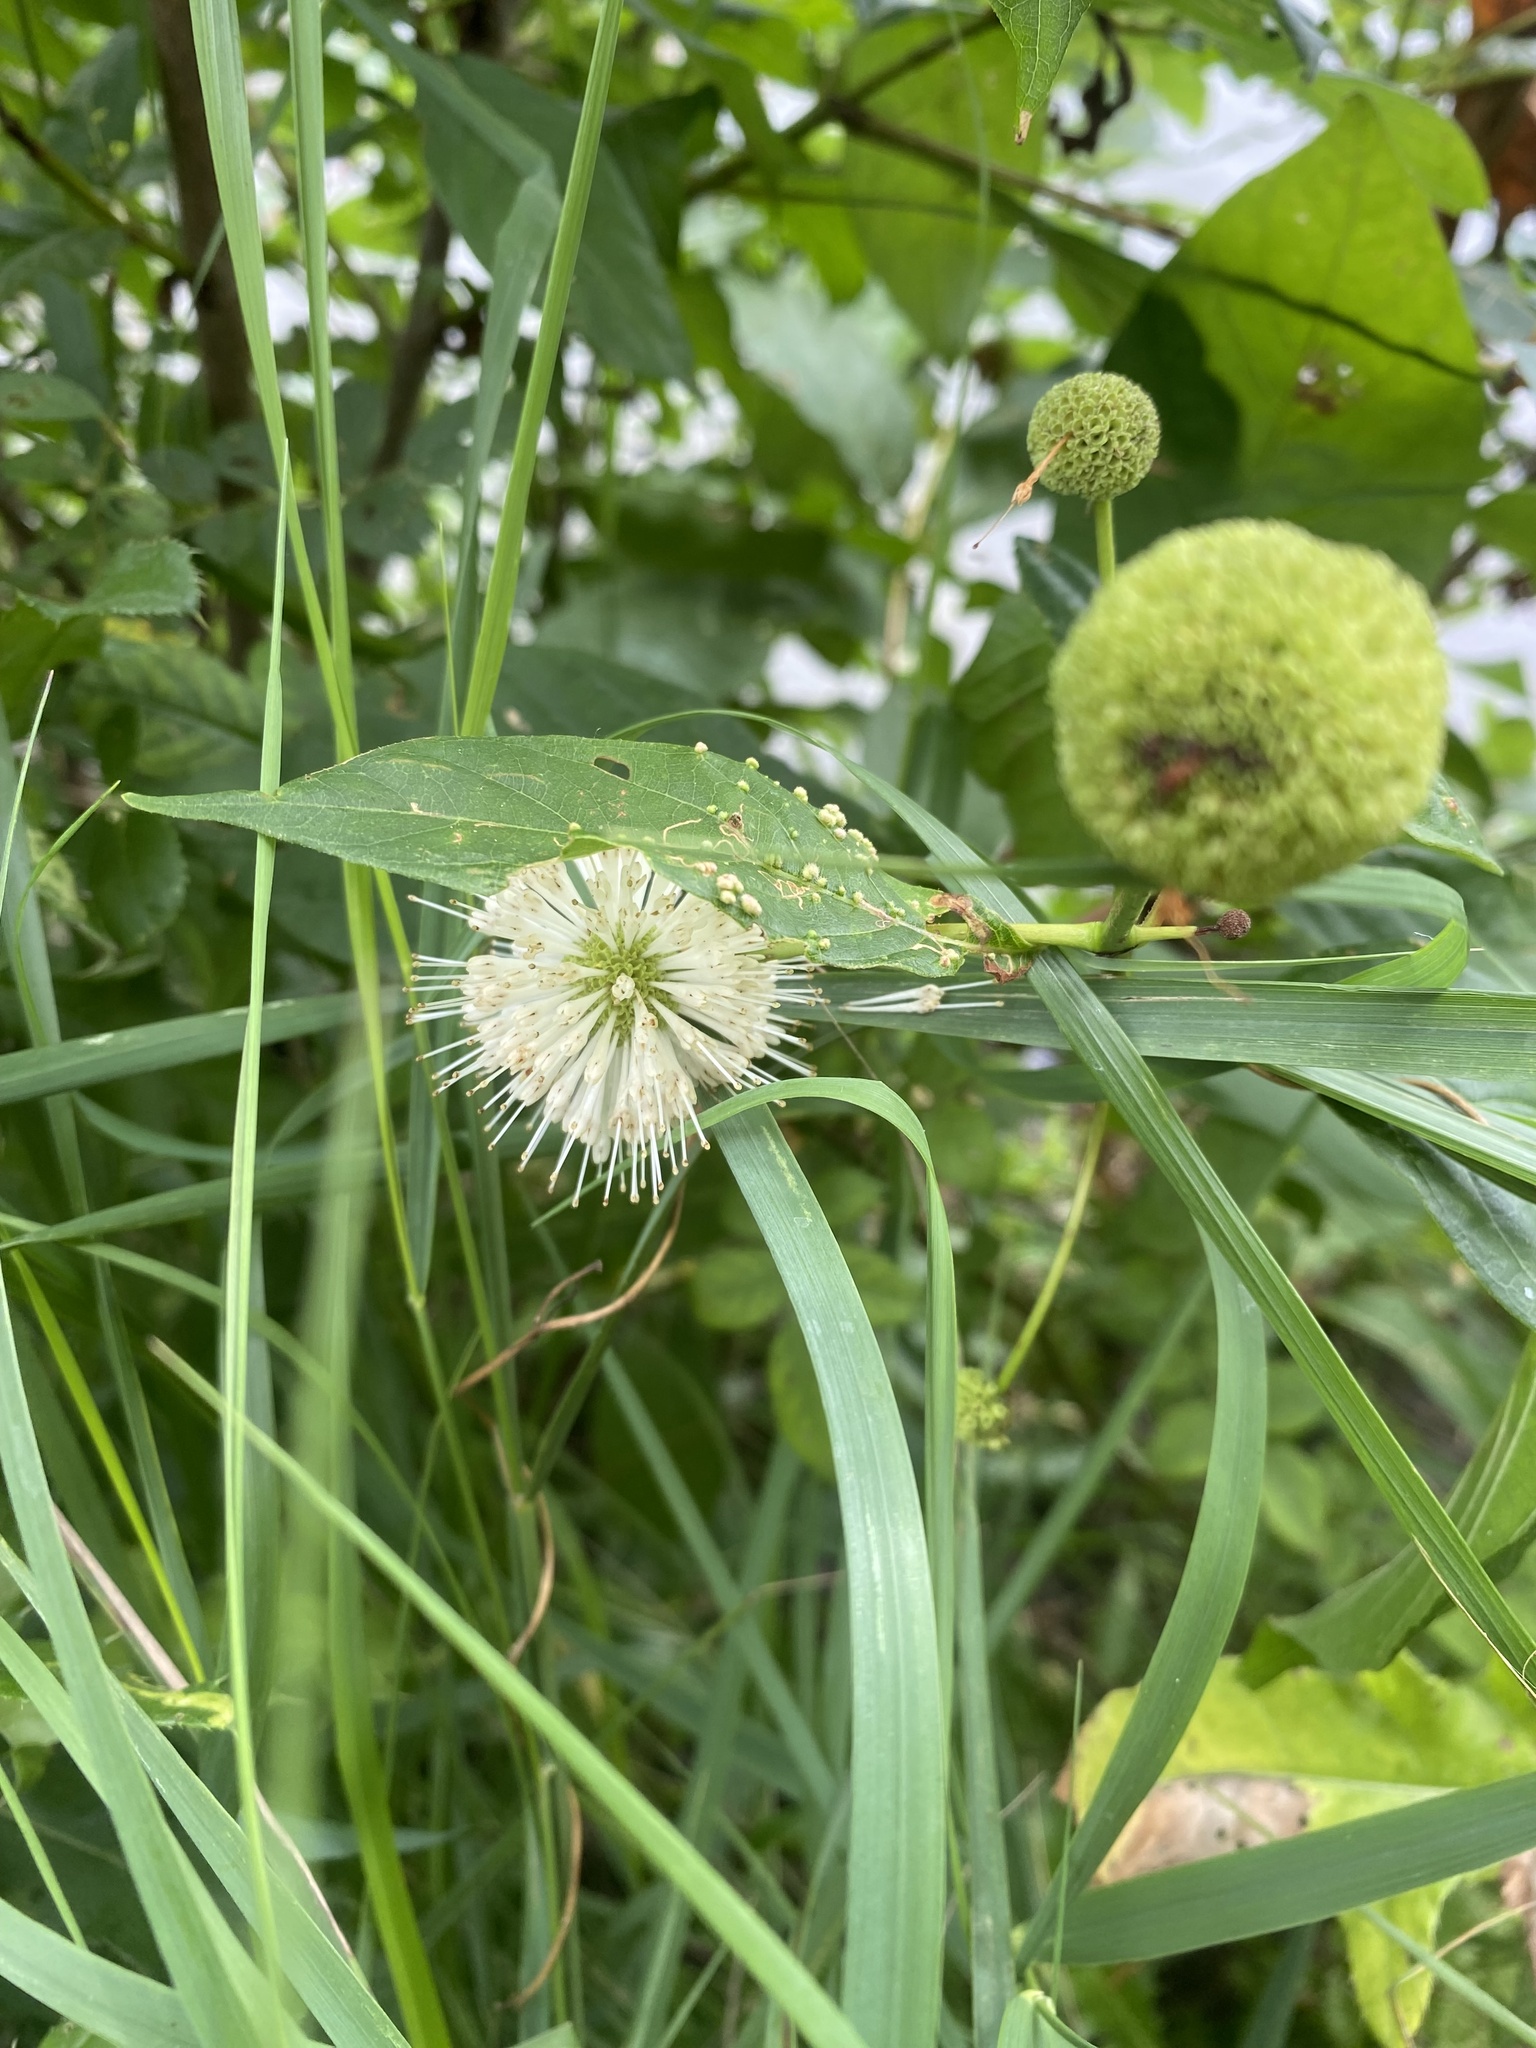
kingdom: Plantae
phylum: Tracheophyta
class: Magnoliopsida
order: Gentianales
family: Rubiaceae
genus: Cephalanthus
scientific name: Cephalanthus occidentalis
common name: Button-willow
